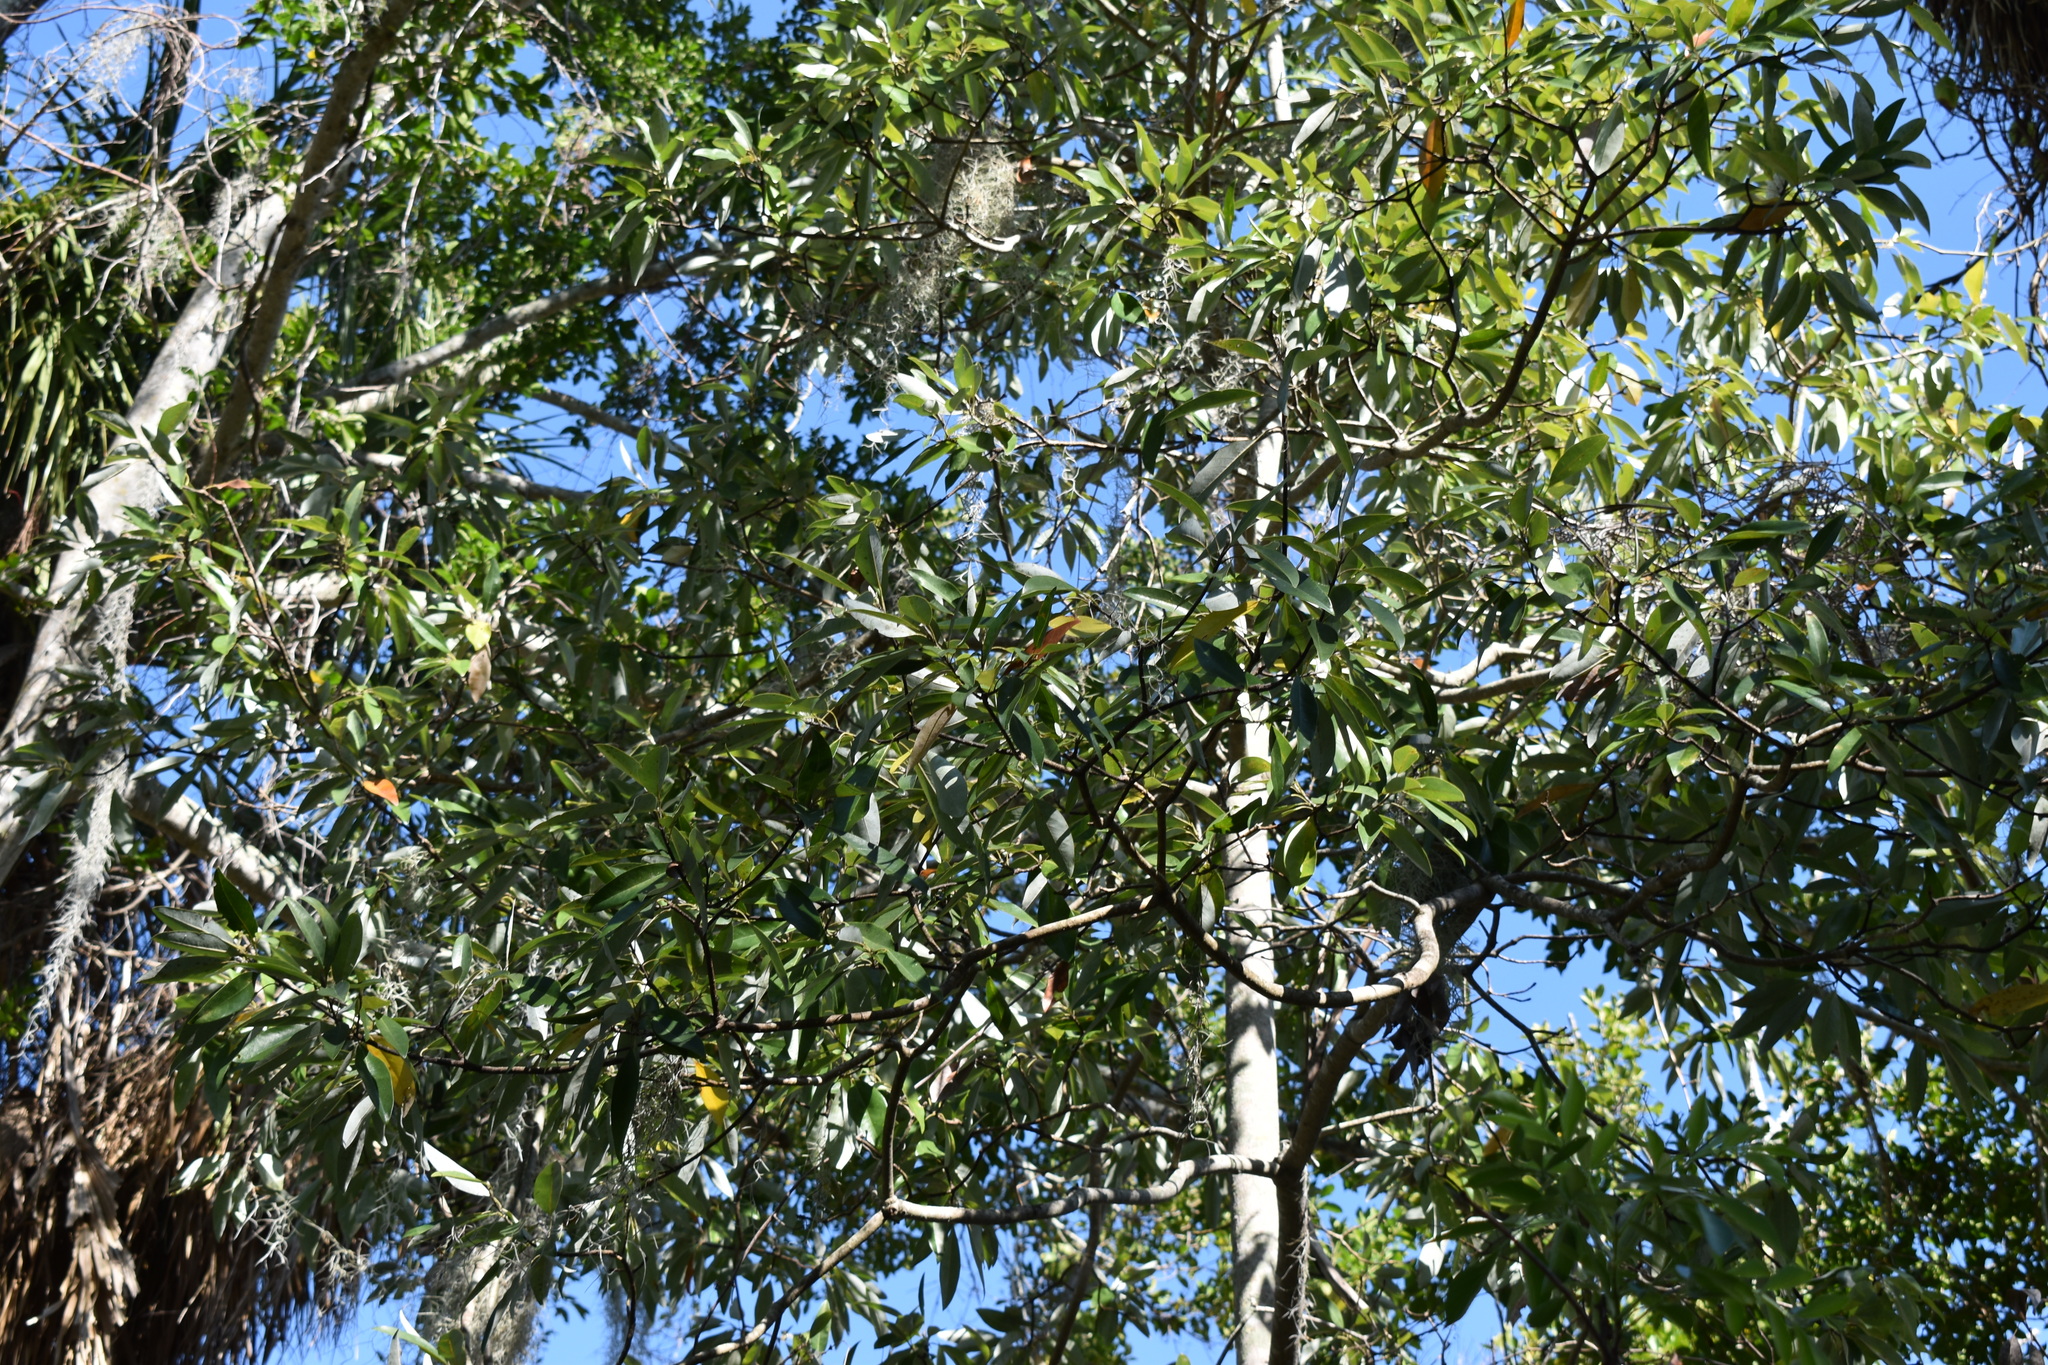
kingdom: Plantae
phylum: Tracheophyta
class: Magnoliopsida
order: Magnoliales
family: Magnoliaceae
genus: Magnolia
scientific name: Magnolia virginiana
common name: Swamp bay
